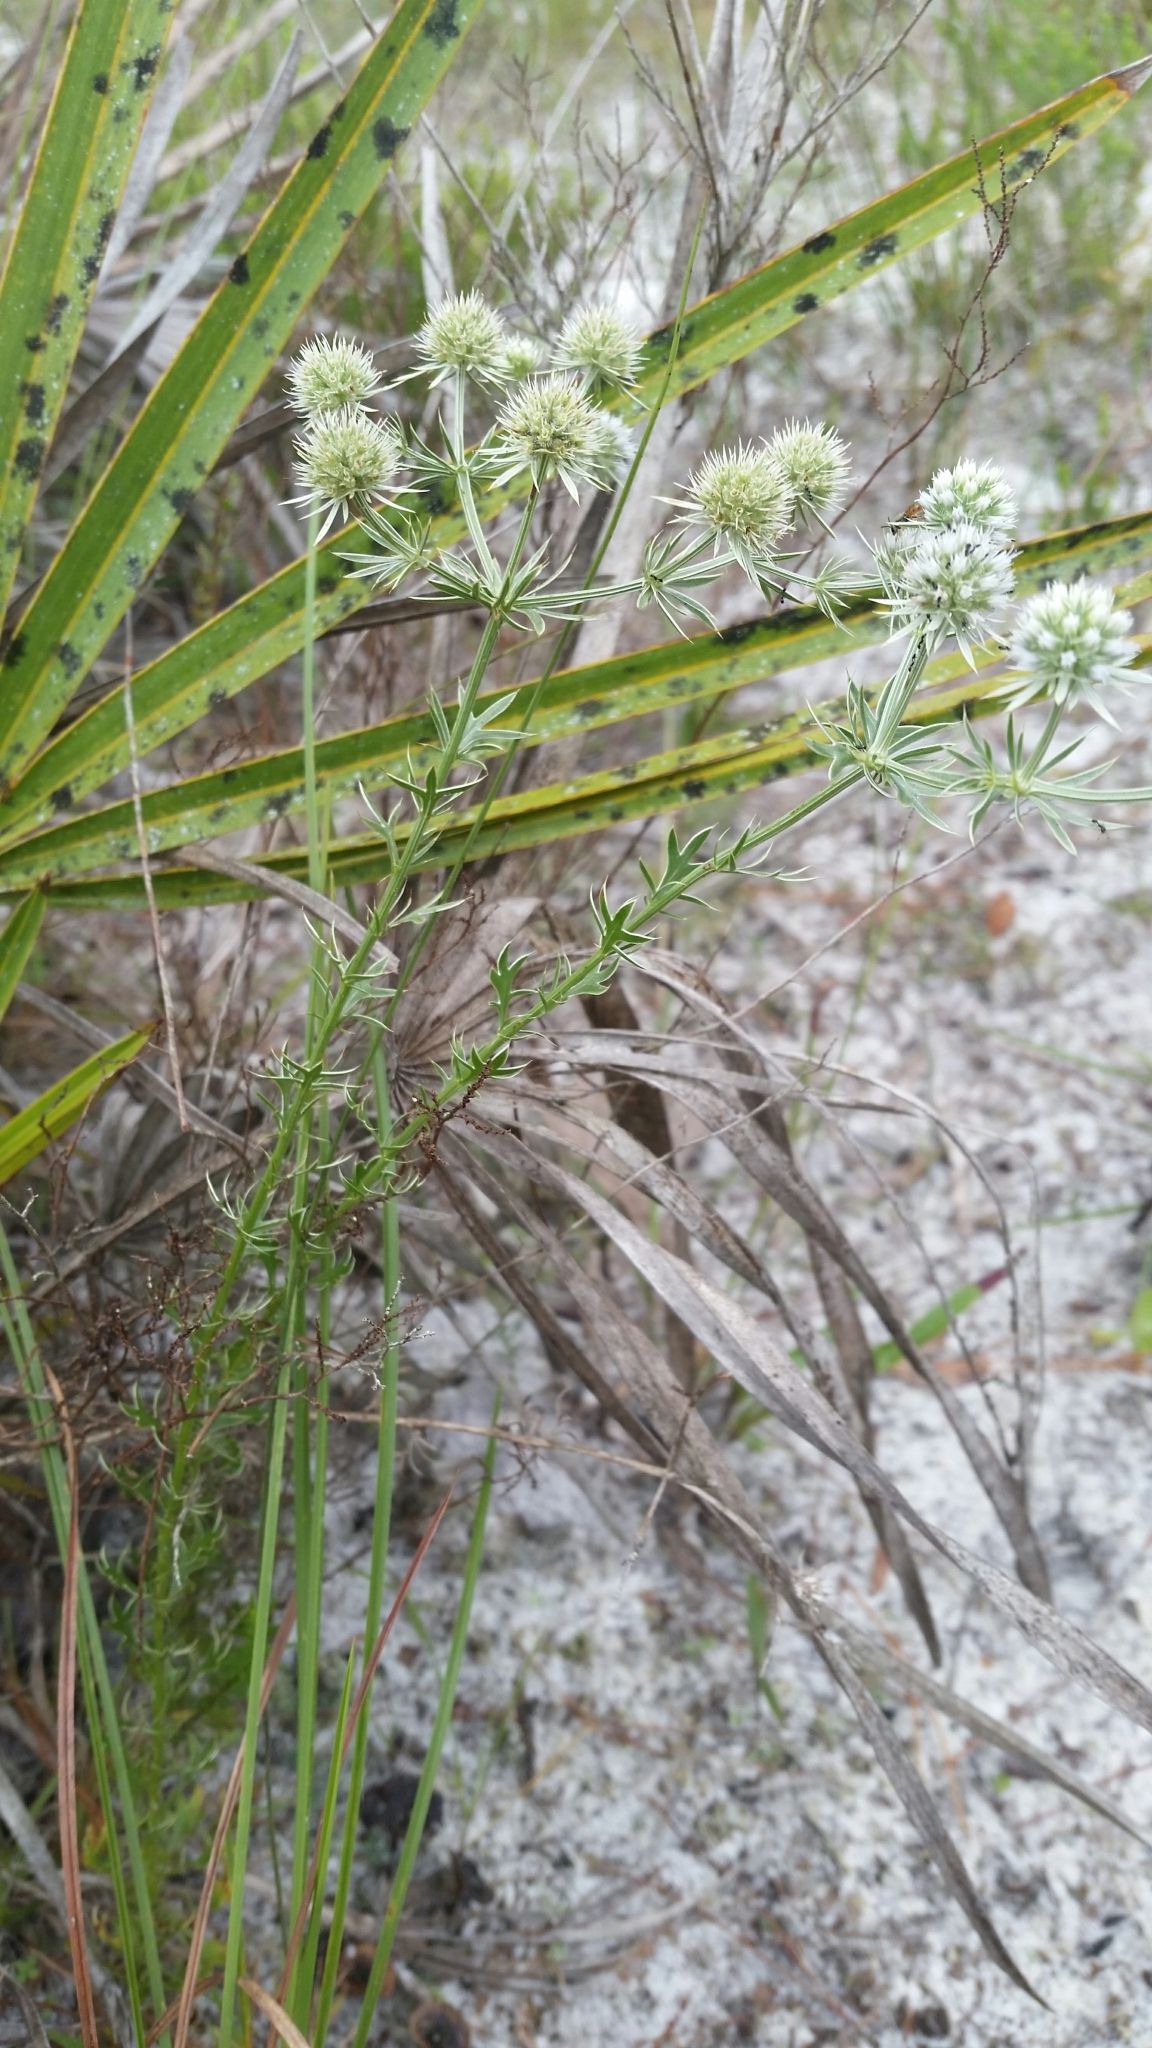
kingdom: Plantae
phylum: Tracheophyta
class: Magnoliopsida
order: Apiales
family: Apiaceae
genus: Eryngium
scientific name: Eryngium aromaticum
